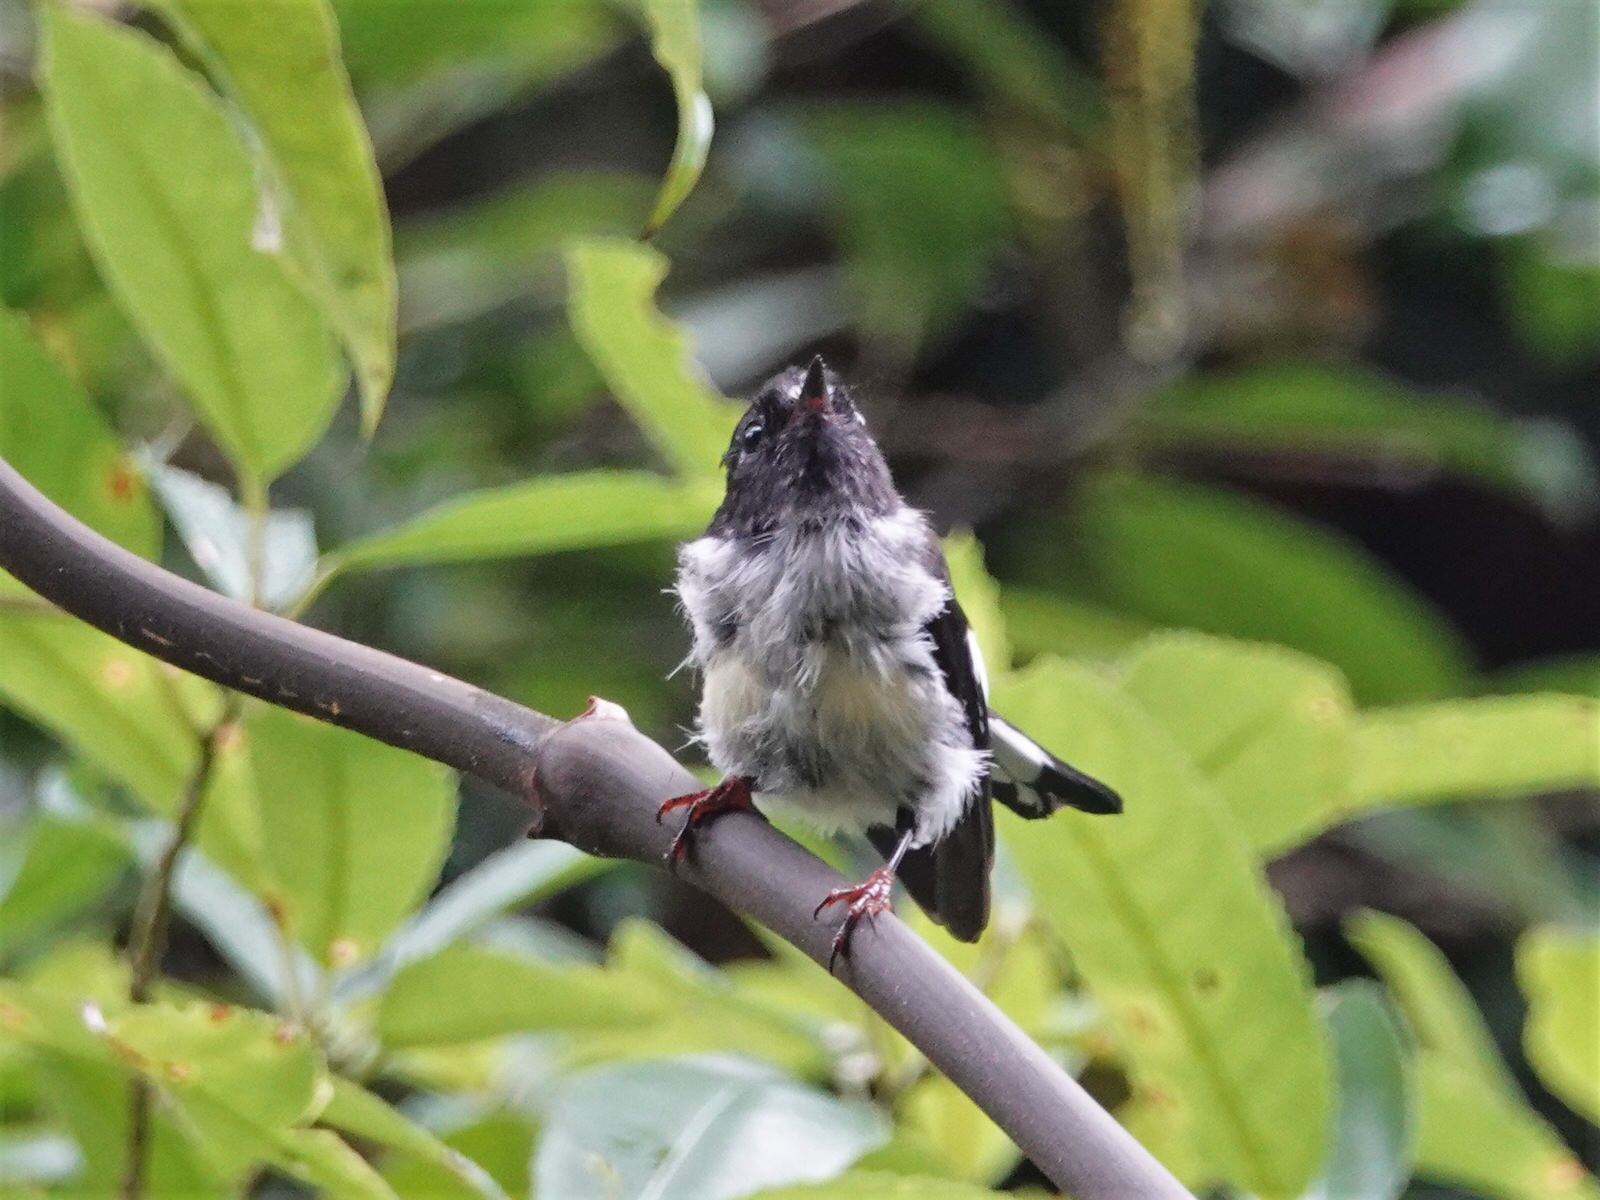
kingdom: Animalia
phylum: Chordata
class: Aves
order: Passeriformes
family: Petroicidae
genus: Petroica
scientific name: Petroica macrocephala
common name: Tomtit
